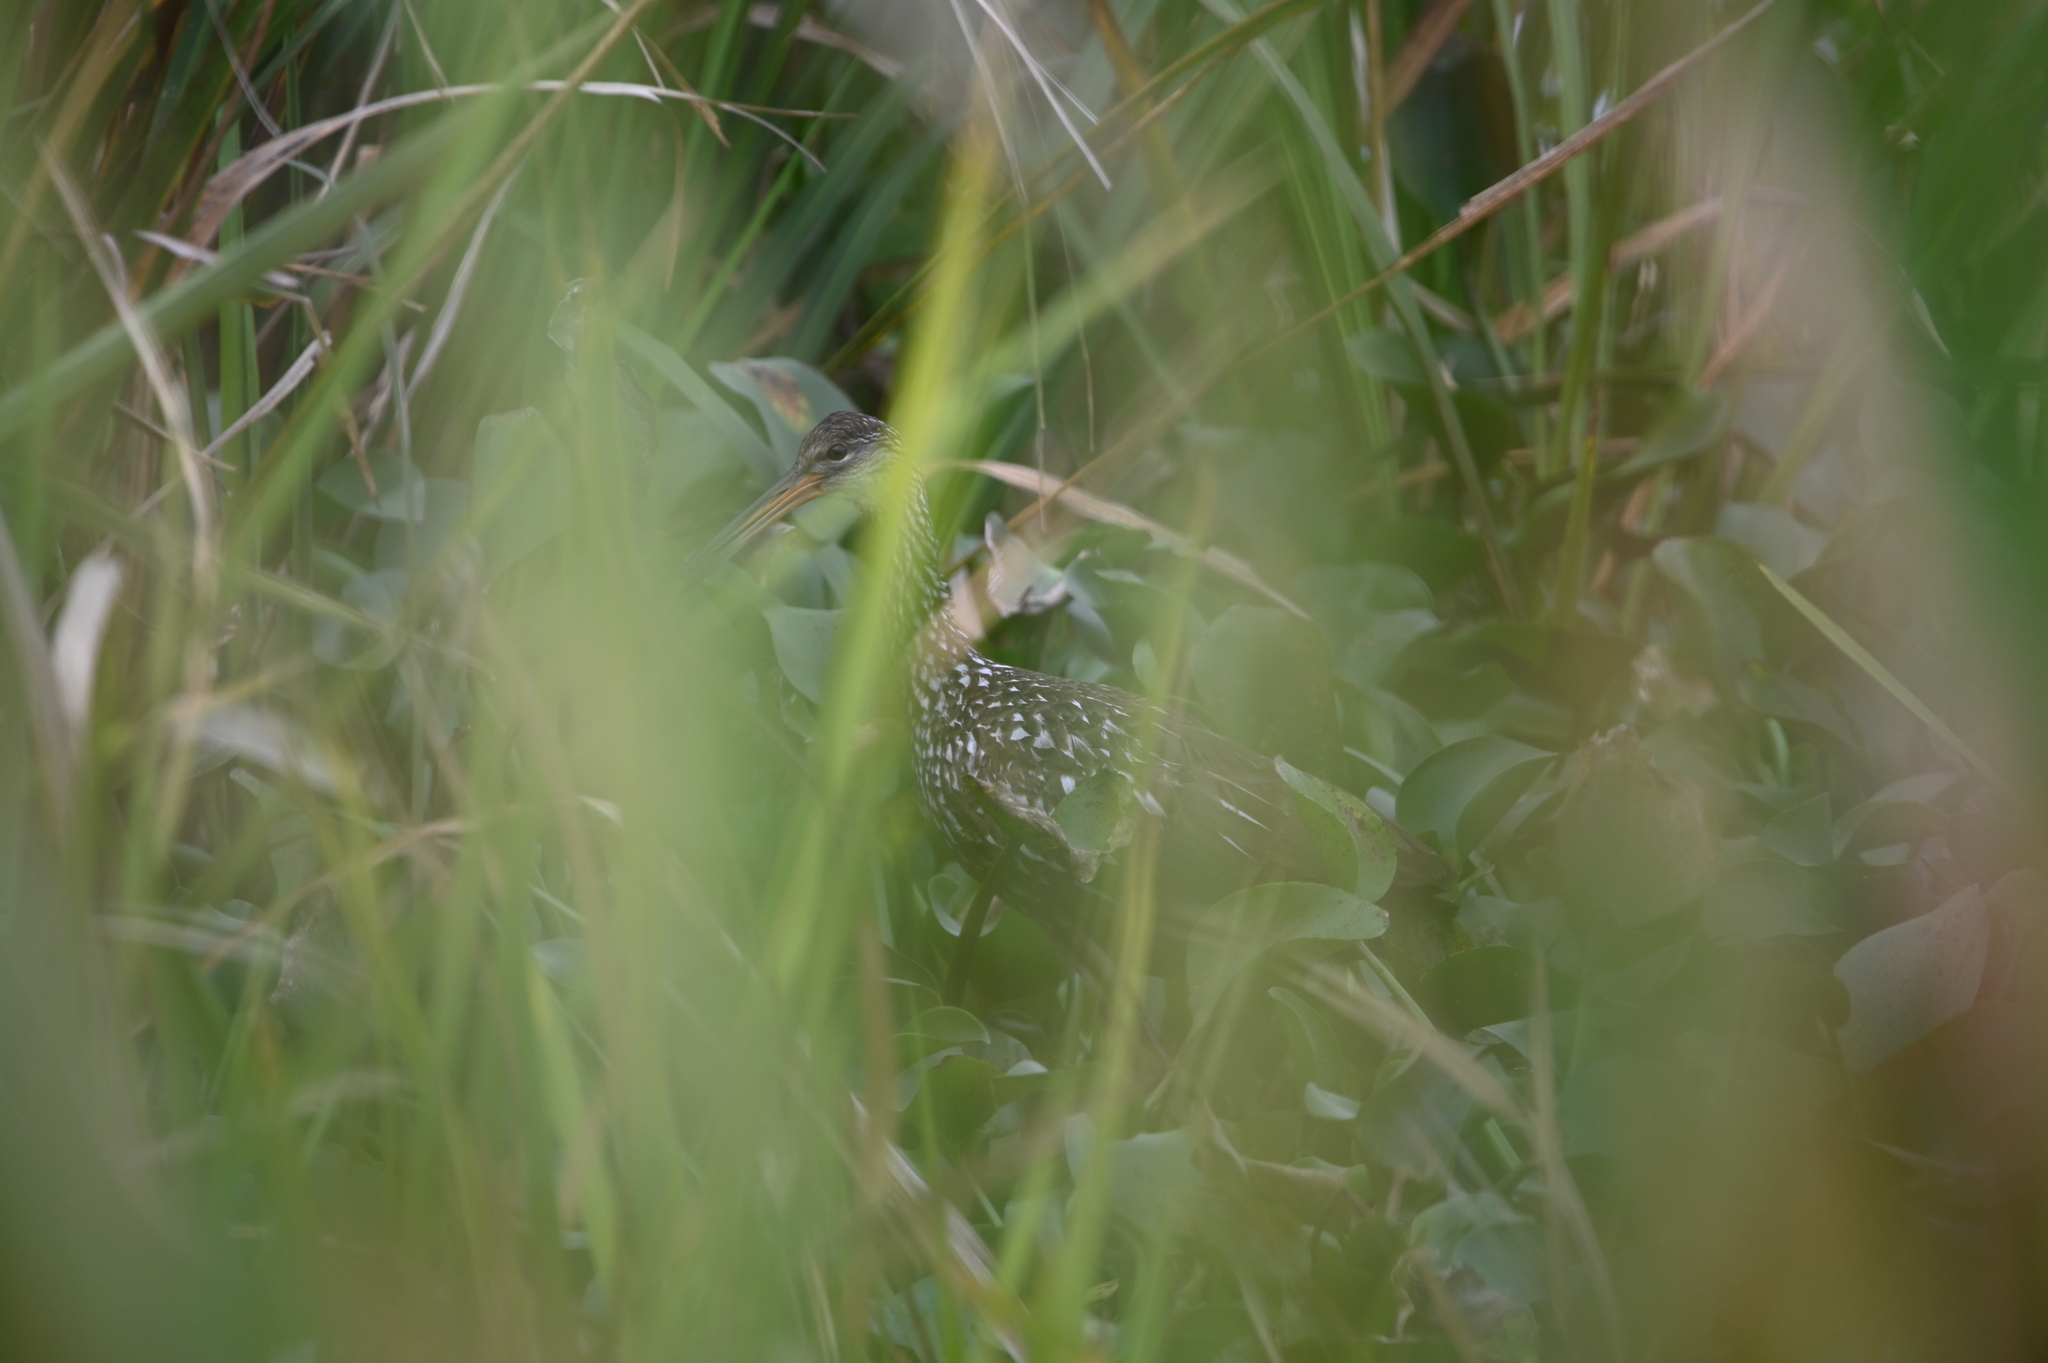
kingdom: Animalia
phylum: Chordata
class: Aves
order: Gruiformes
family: Aramidae
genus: Aramus
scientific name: Aramus guarauna
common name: Limpkin
